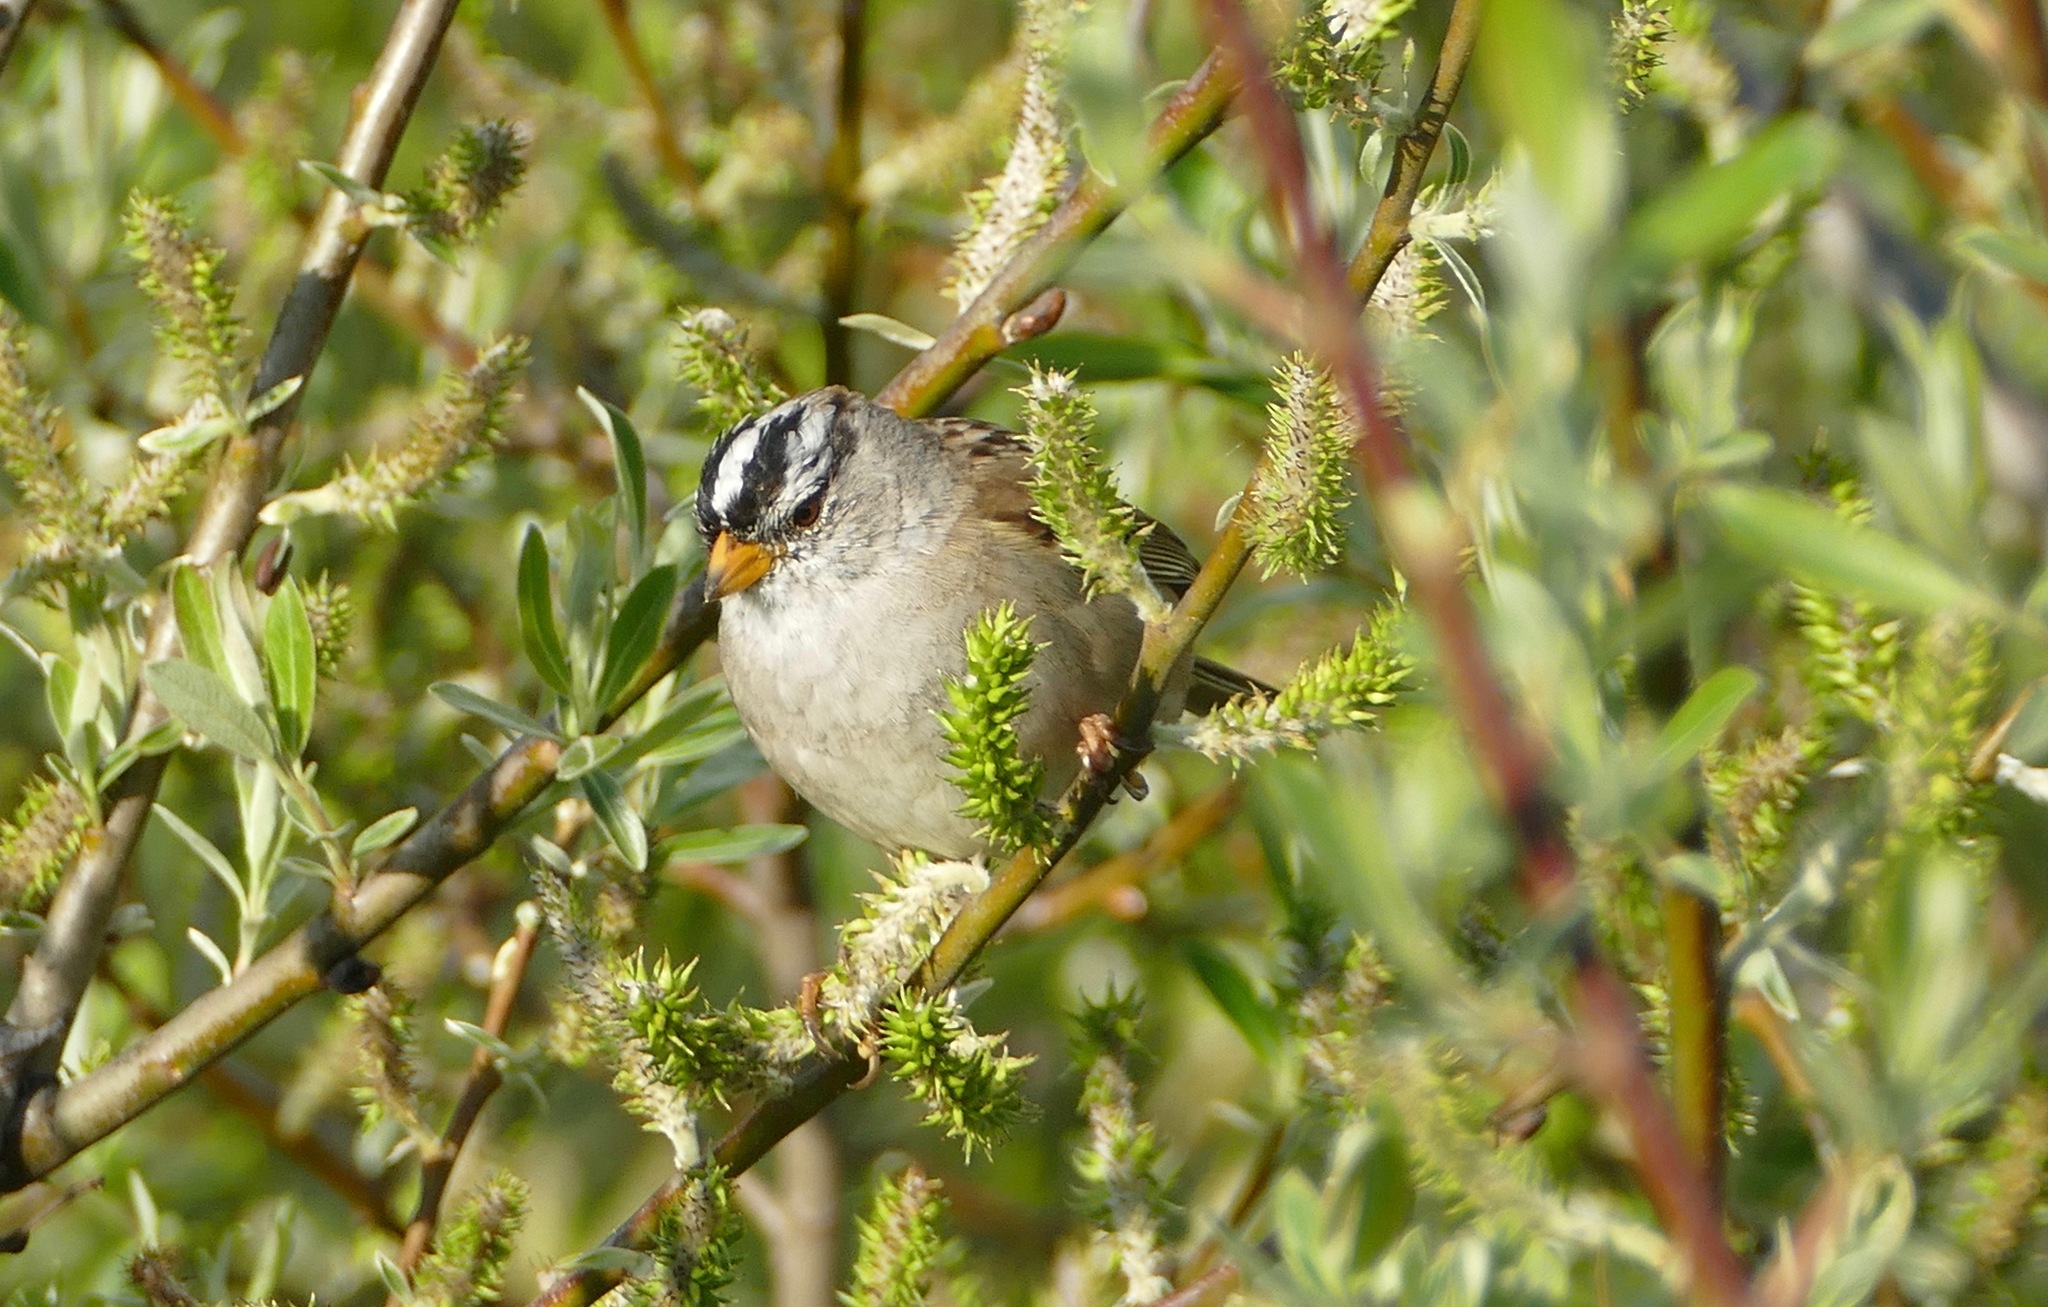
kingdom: Animalia
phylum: Chordata
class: Aves
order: Passeriformes
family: Passerellidae
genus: Zonotrichia
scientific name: Zonotrichia leucophrys
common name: White-crowned sparrow
